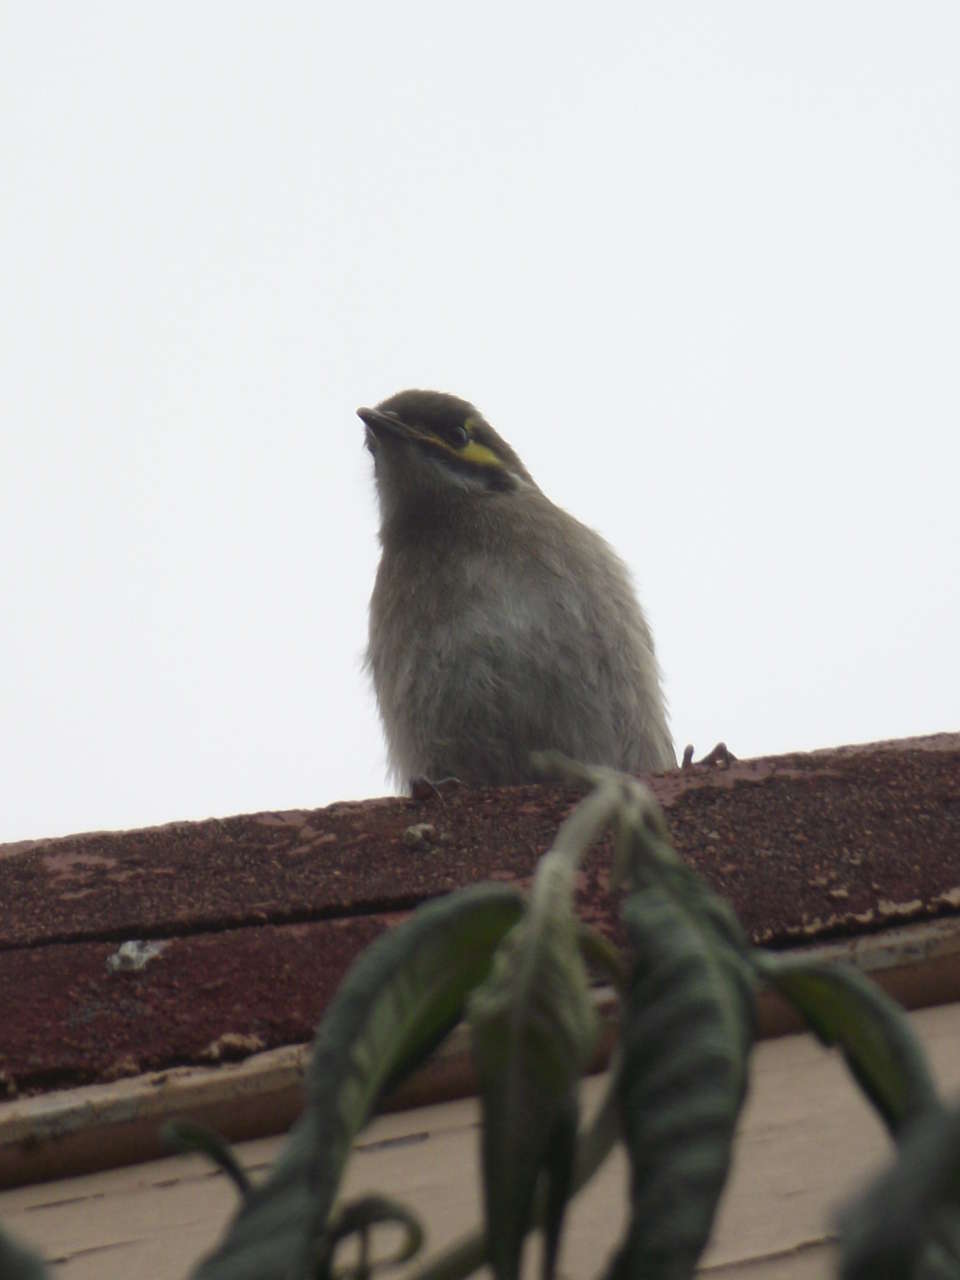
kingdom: Animalia
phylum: Chordata
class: Aves
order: Passeriformes
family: Meliphagidae
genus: Caligavis
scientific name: Caligavis chrysops
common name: Yellow-faced honeyeater
